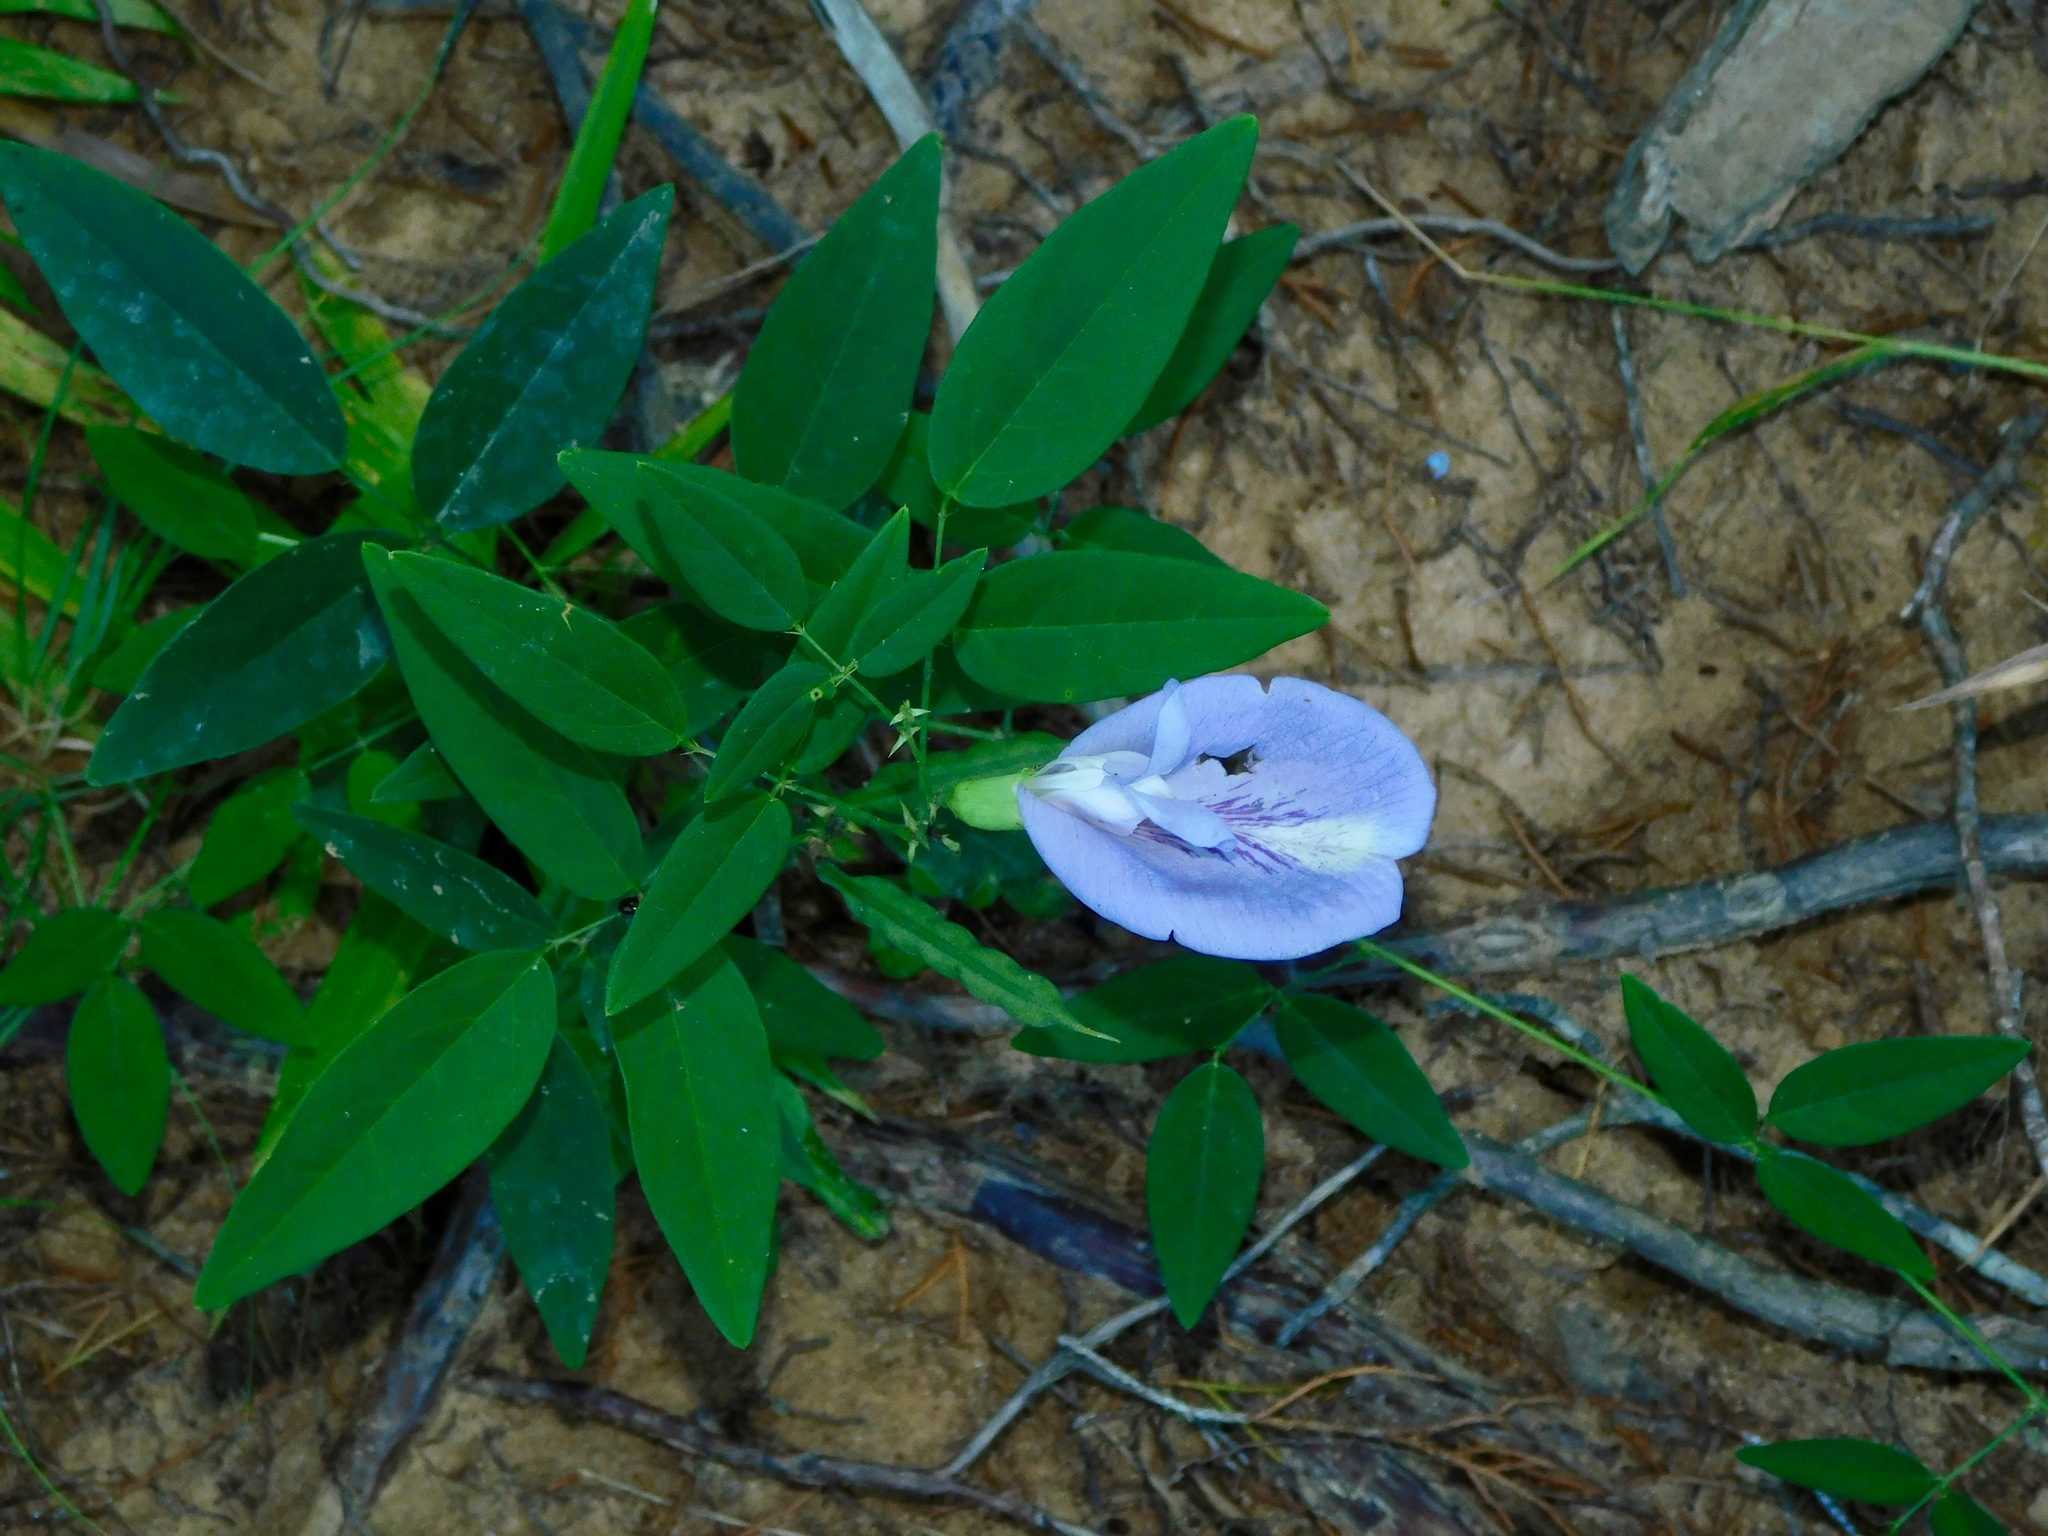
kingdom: Plantae
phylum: Tracheophyta
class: Magnoliopsida
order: Fabales
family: Fabaceae
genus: Clitoria
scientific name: Clitoria mariana
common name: Butterfly-pea
